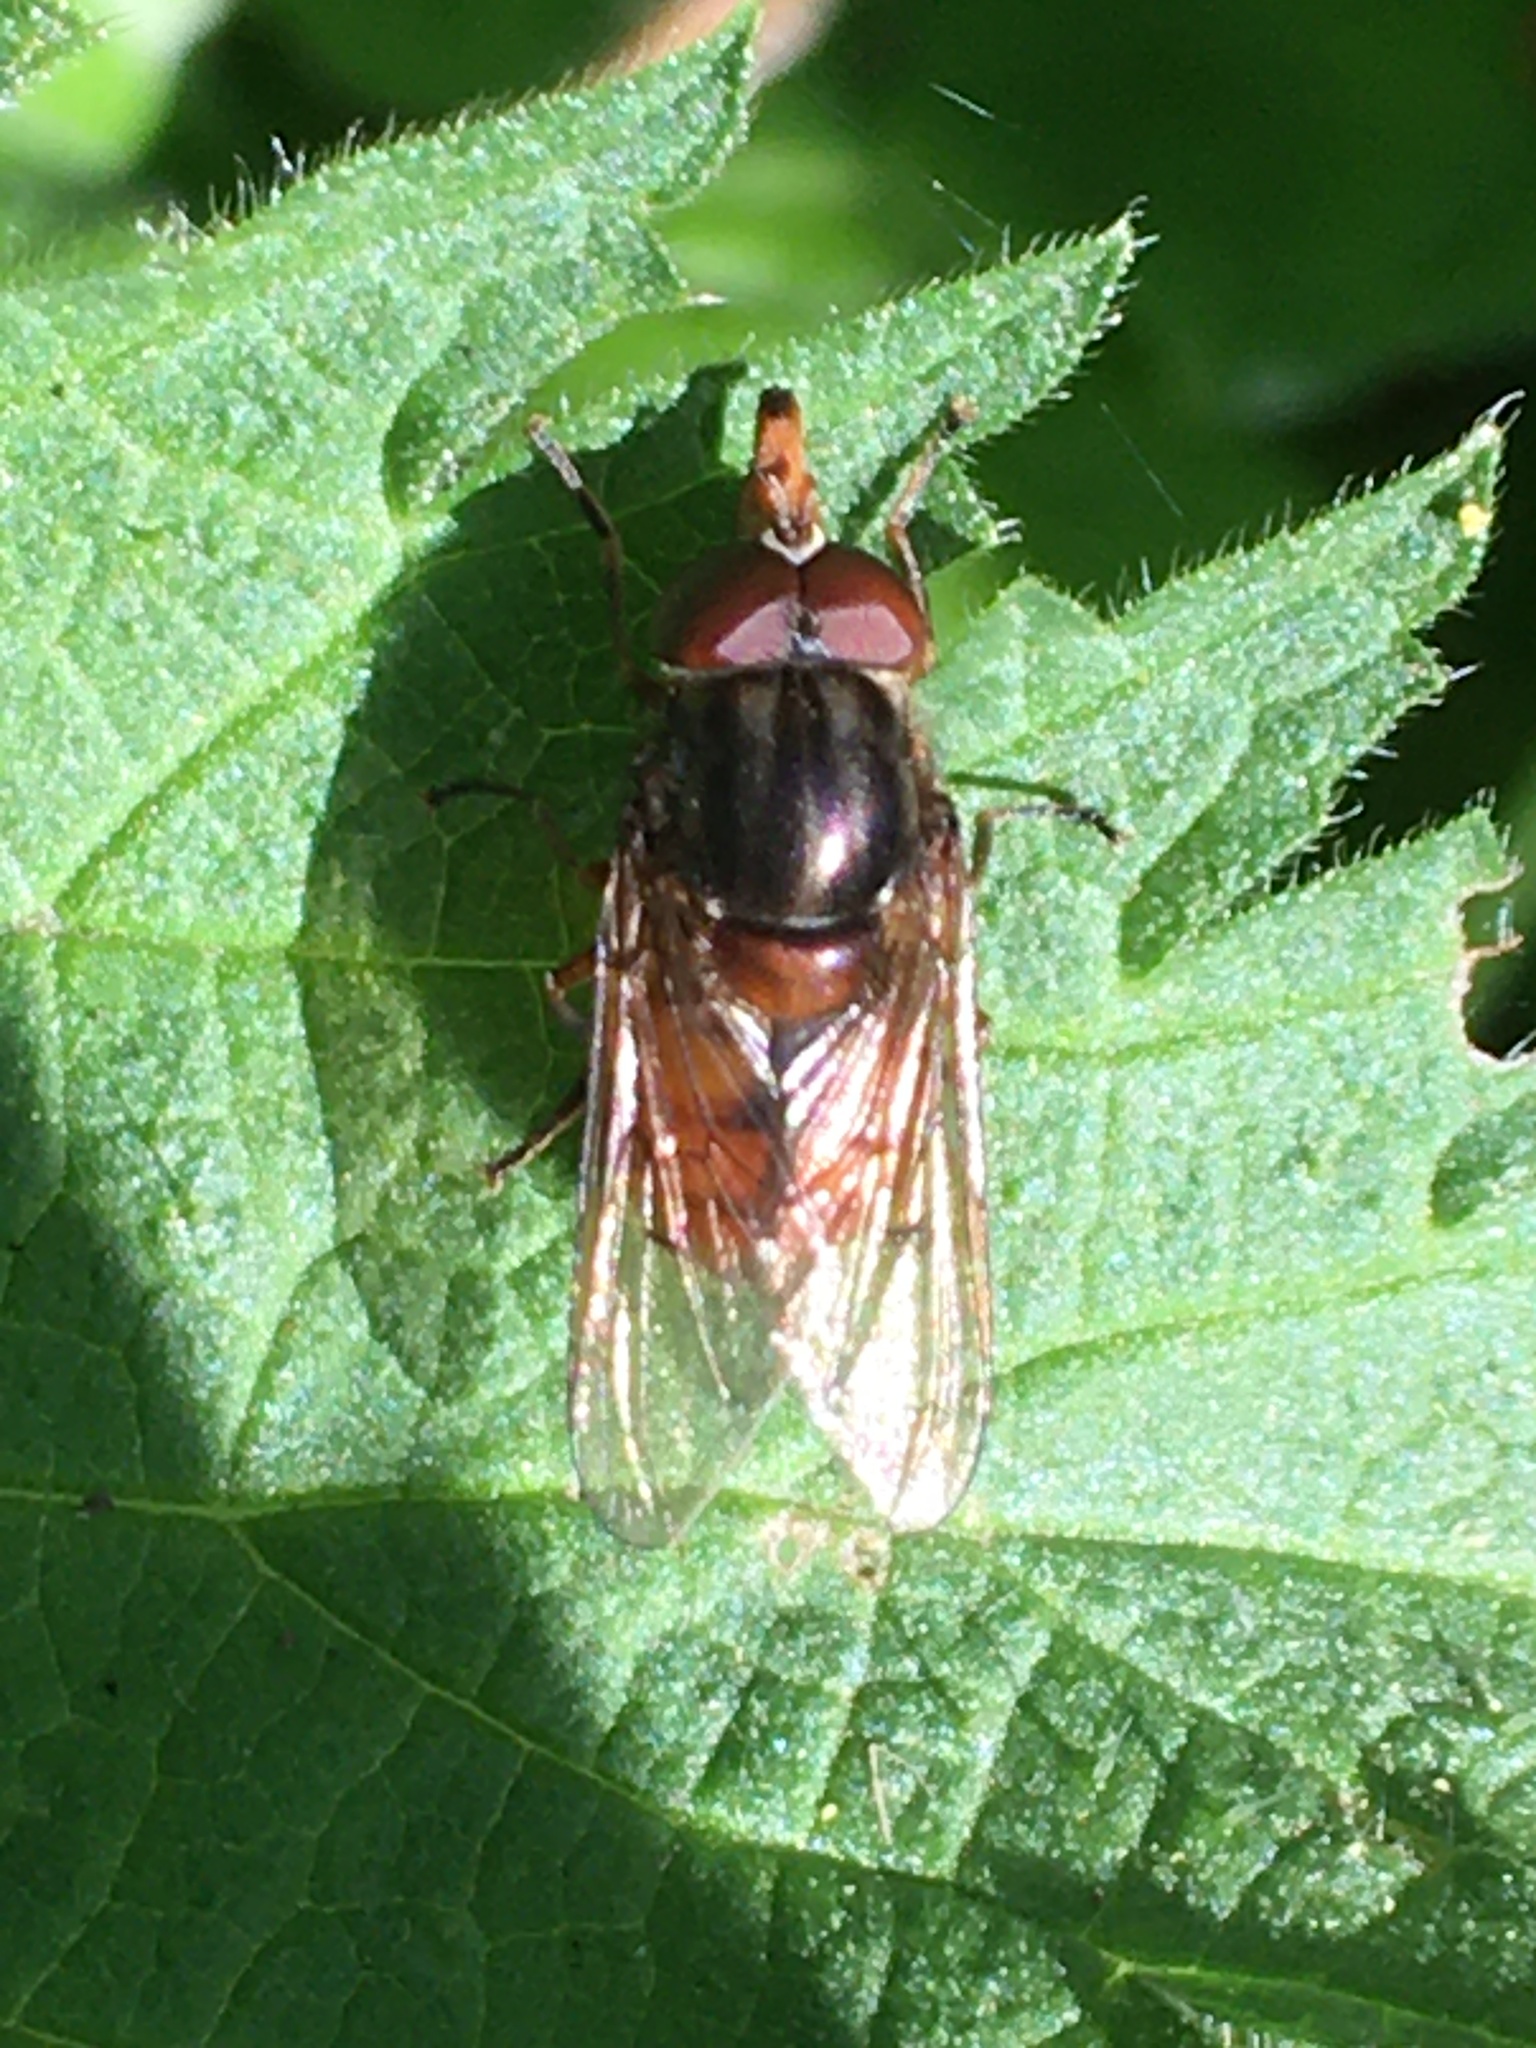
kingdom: Animalia
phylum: Arthropoda
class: Insecta
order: Diptera
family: Syrphidae
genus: Rhingia
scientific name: Rhingia campestris
